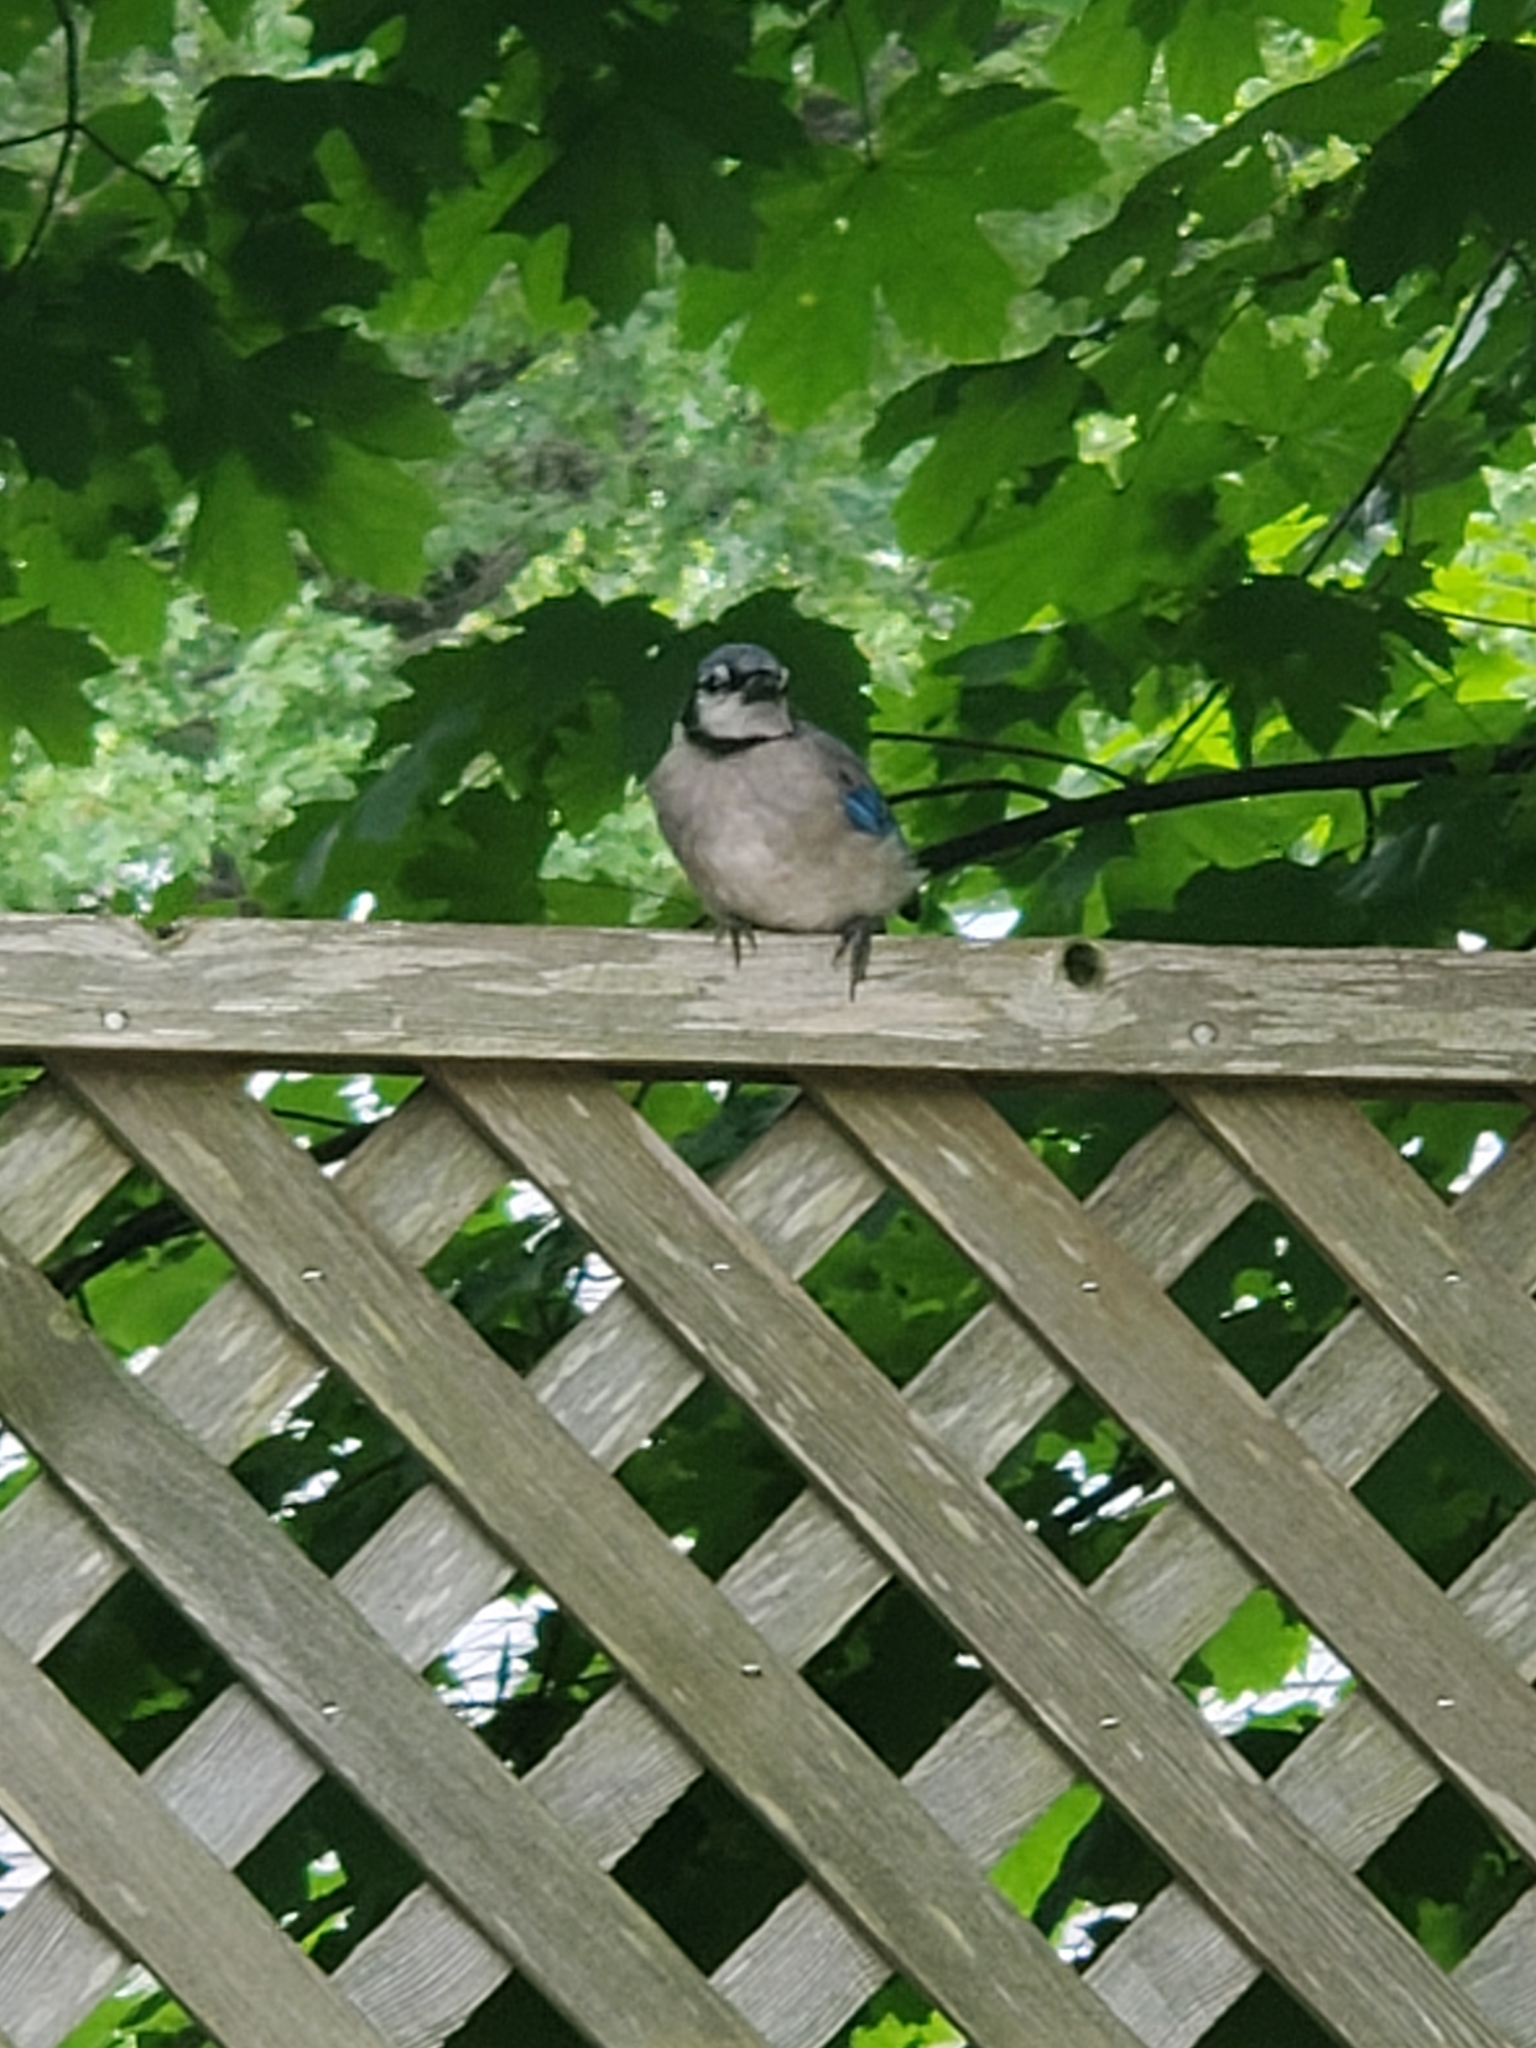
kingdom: Animalia
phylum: Chordata
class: Aves
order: Passeriformes
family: Corvidae
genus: Cyanocitta
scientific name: Cyanocitta cristata
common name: Blue jay
